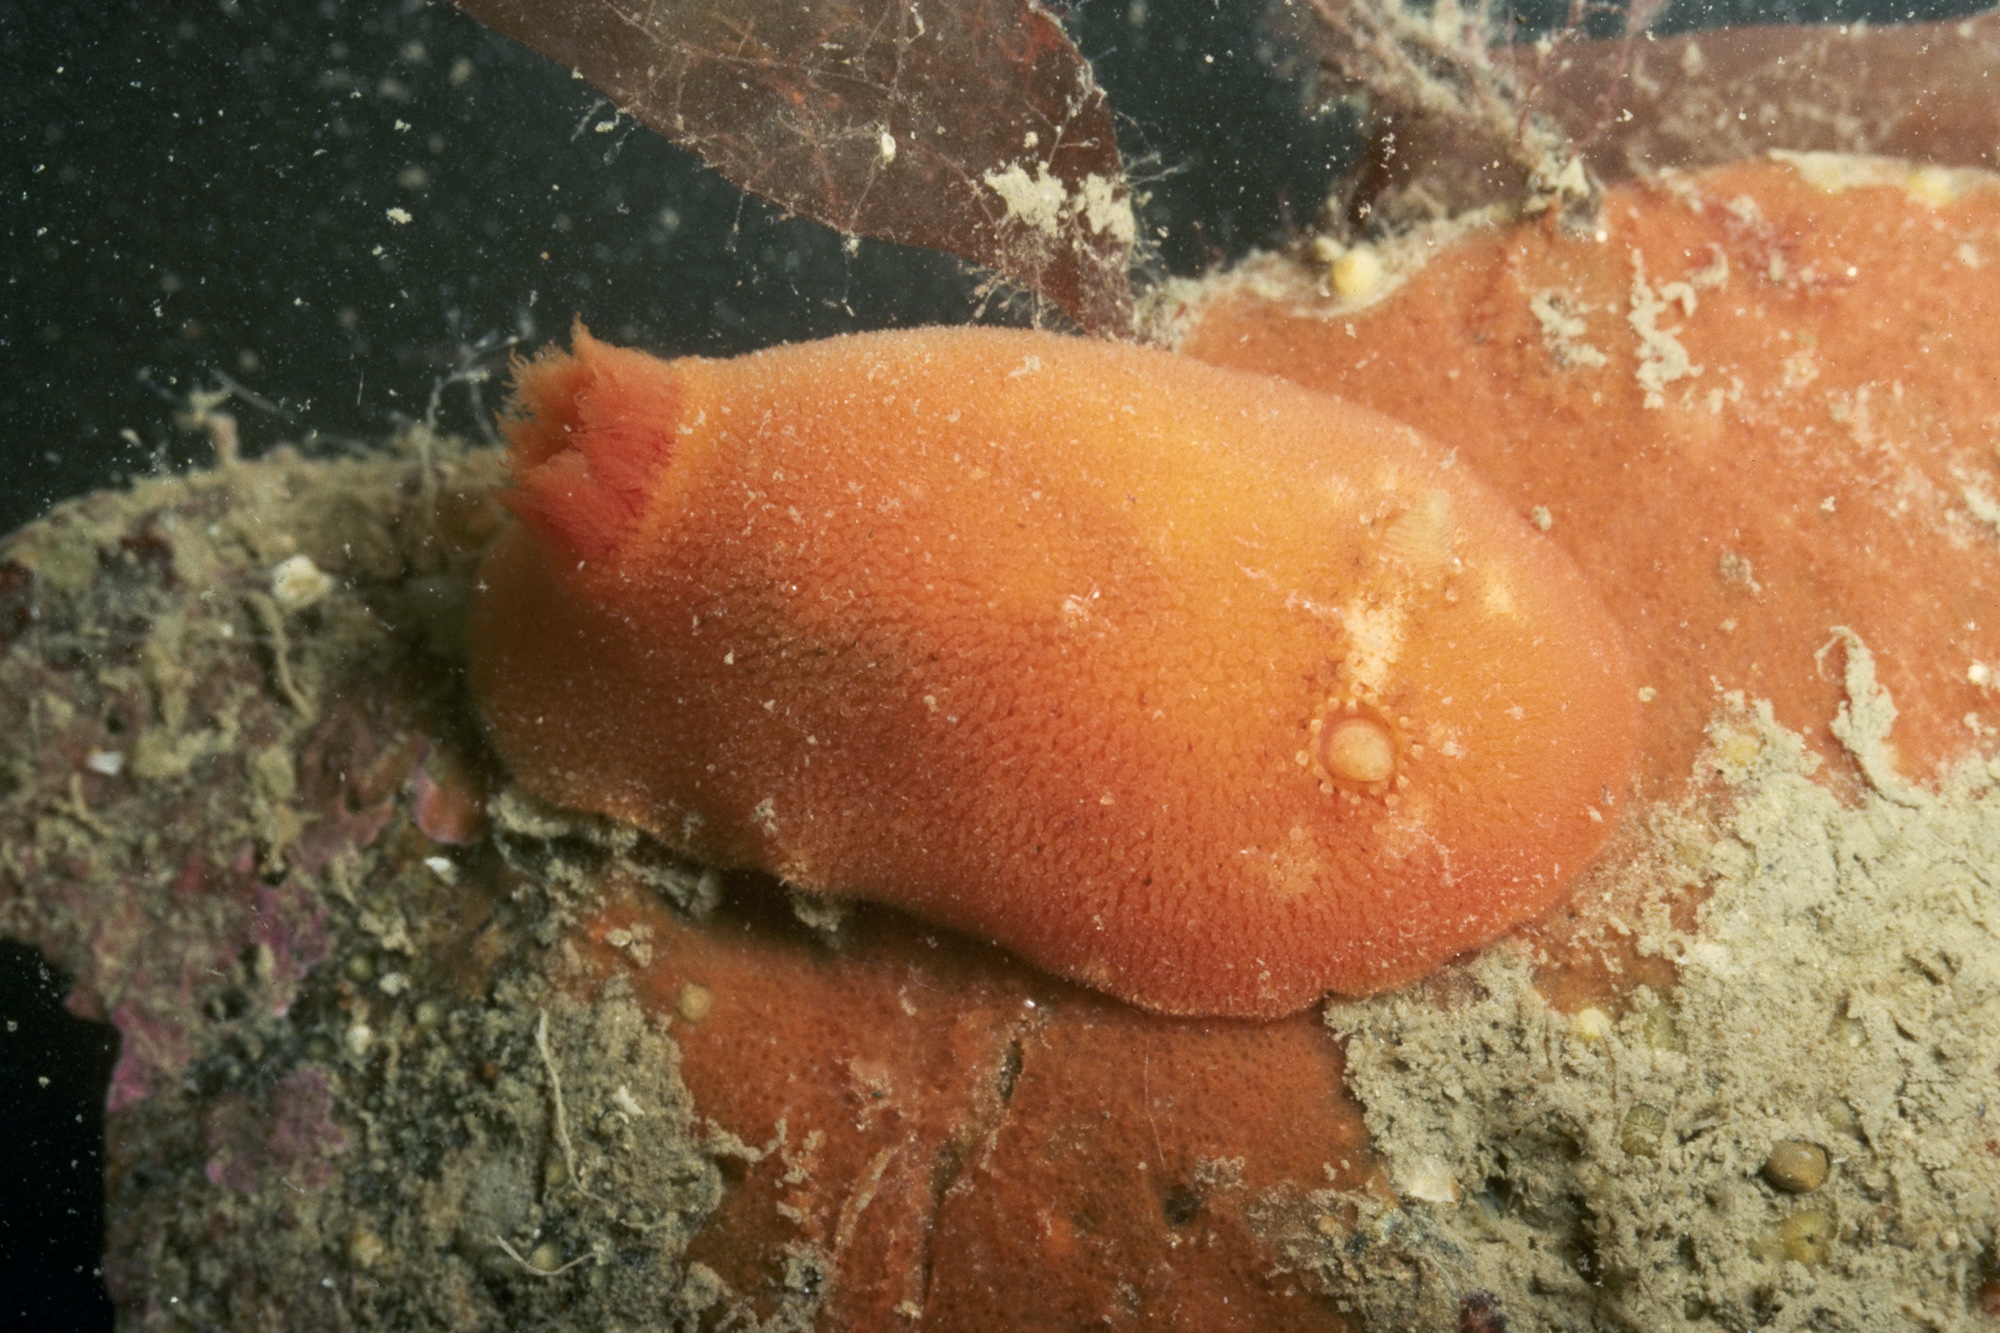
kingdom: Animalia
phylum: Mollusca
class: Gastropoda
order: Nudibranchia
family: Discodorididae
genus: Rostanga
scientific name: Rostanga rubra
